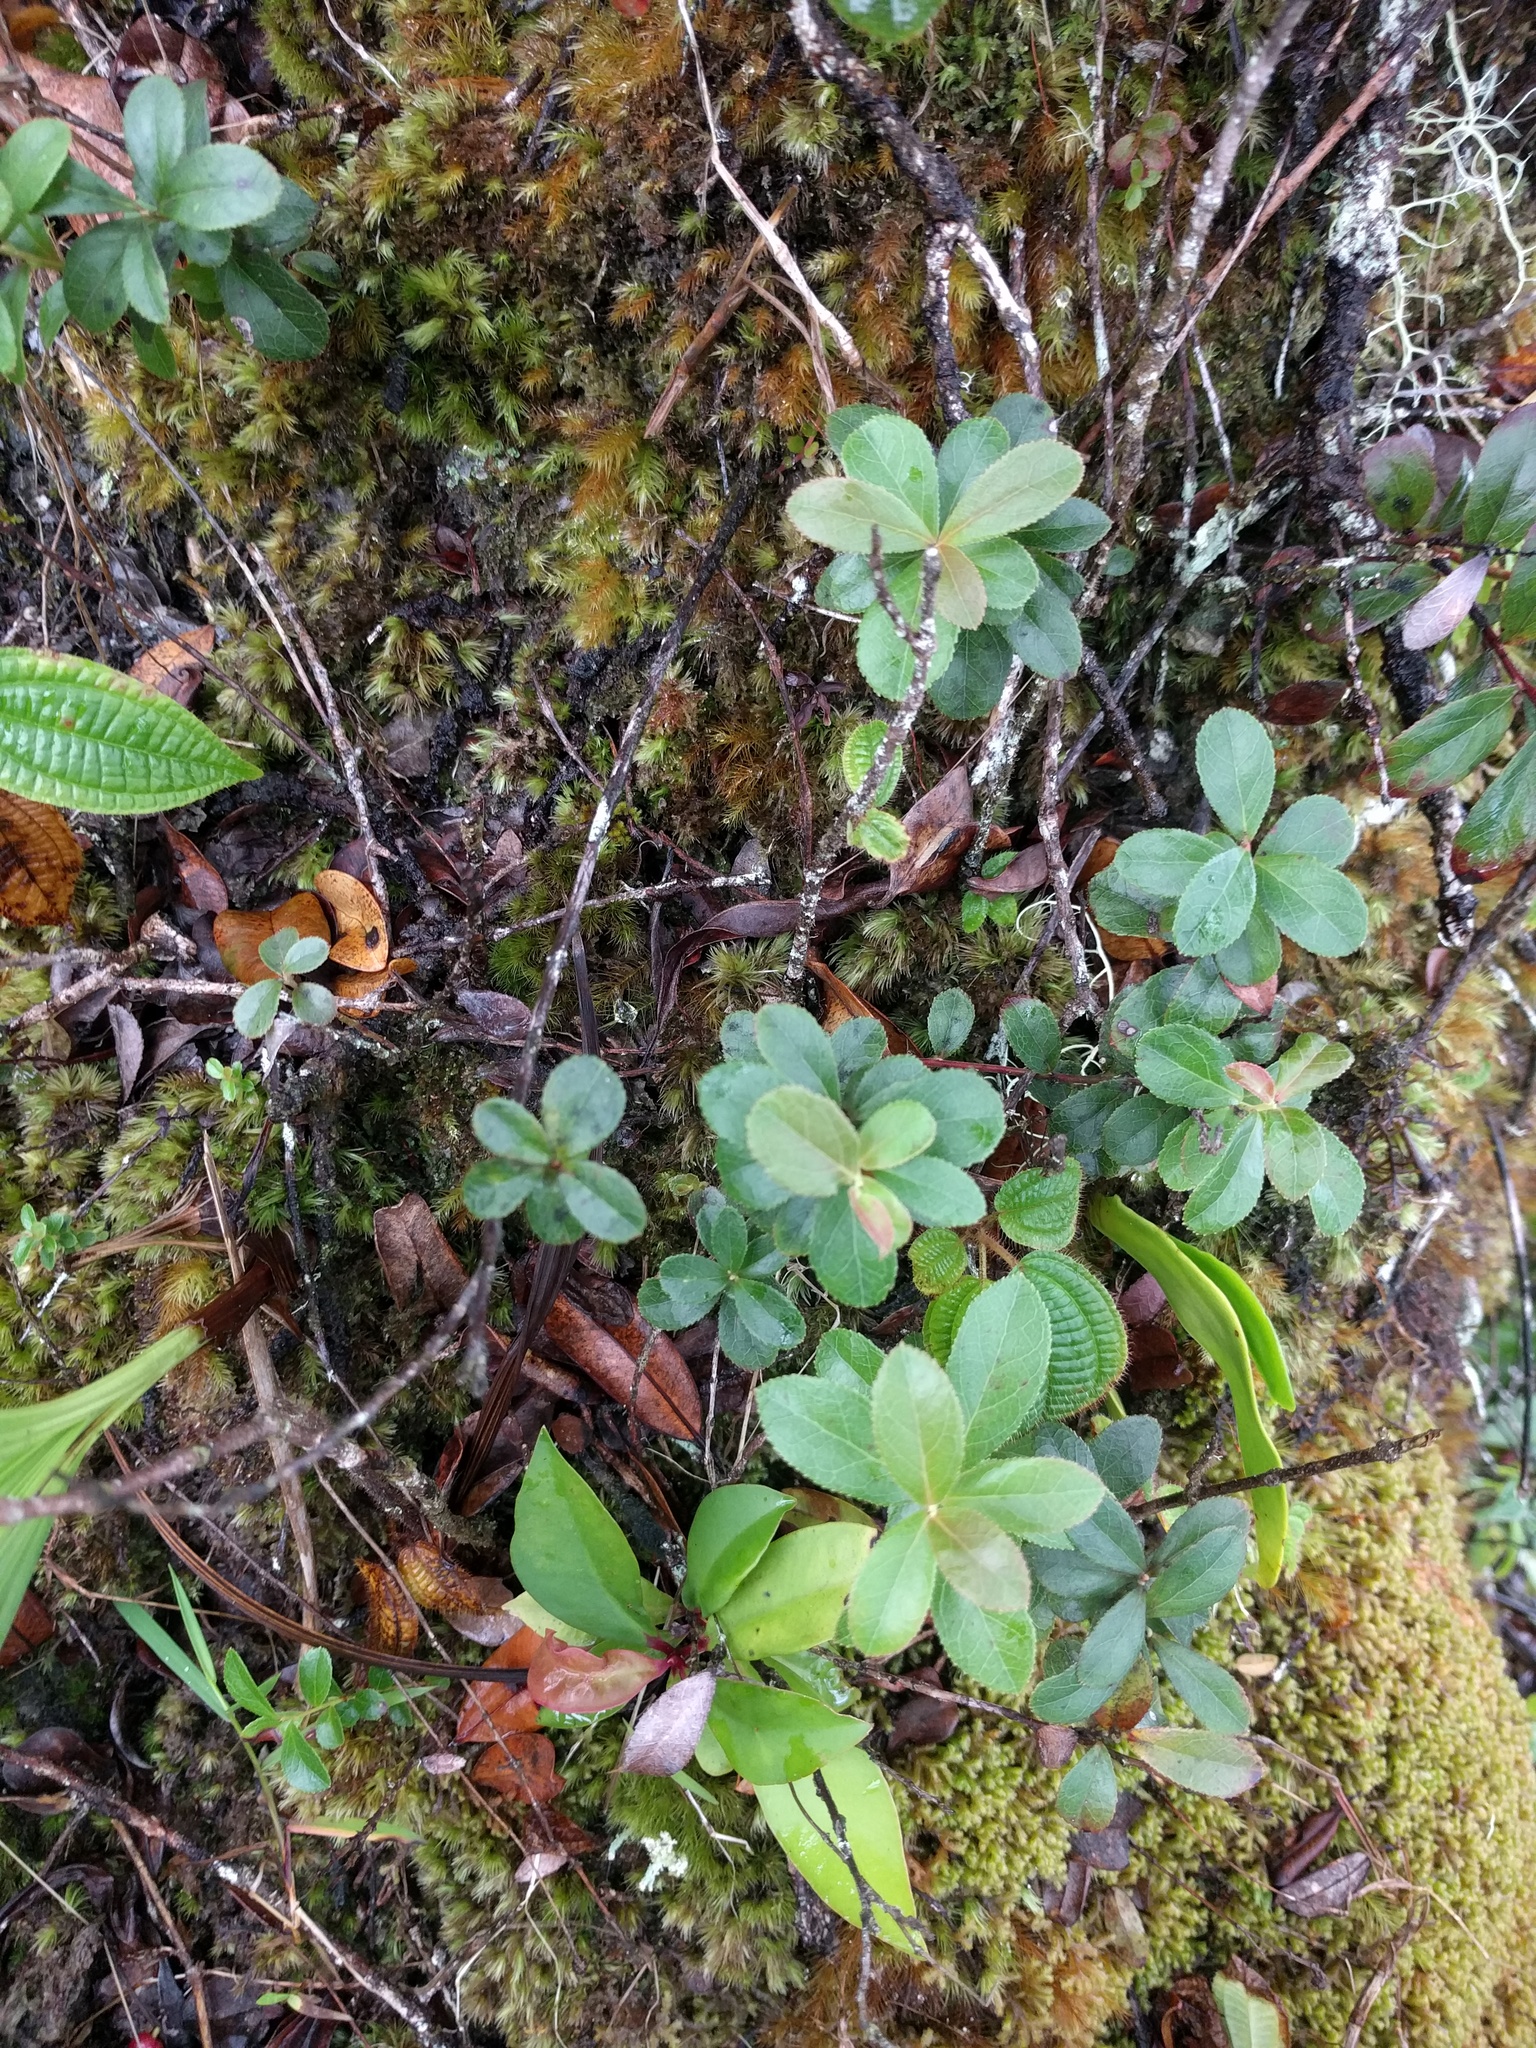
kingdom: Plantae
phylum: Tracheophyta
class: Magnoliopsida
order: Ericales
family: Ericaceae
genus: Vaccinium
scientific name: Vaccinium dentatum
